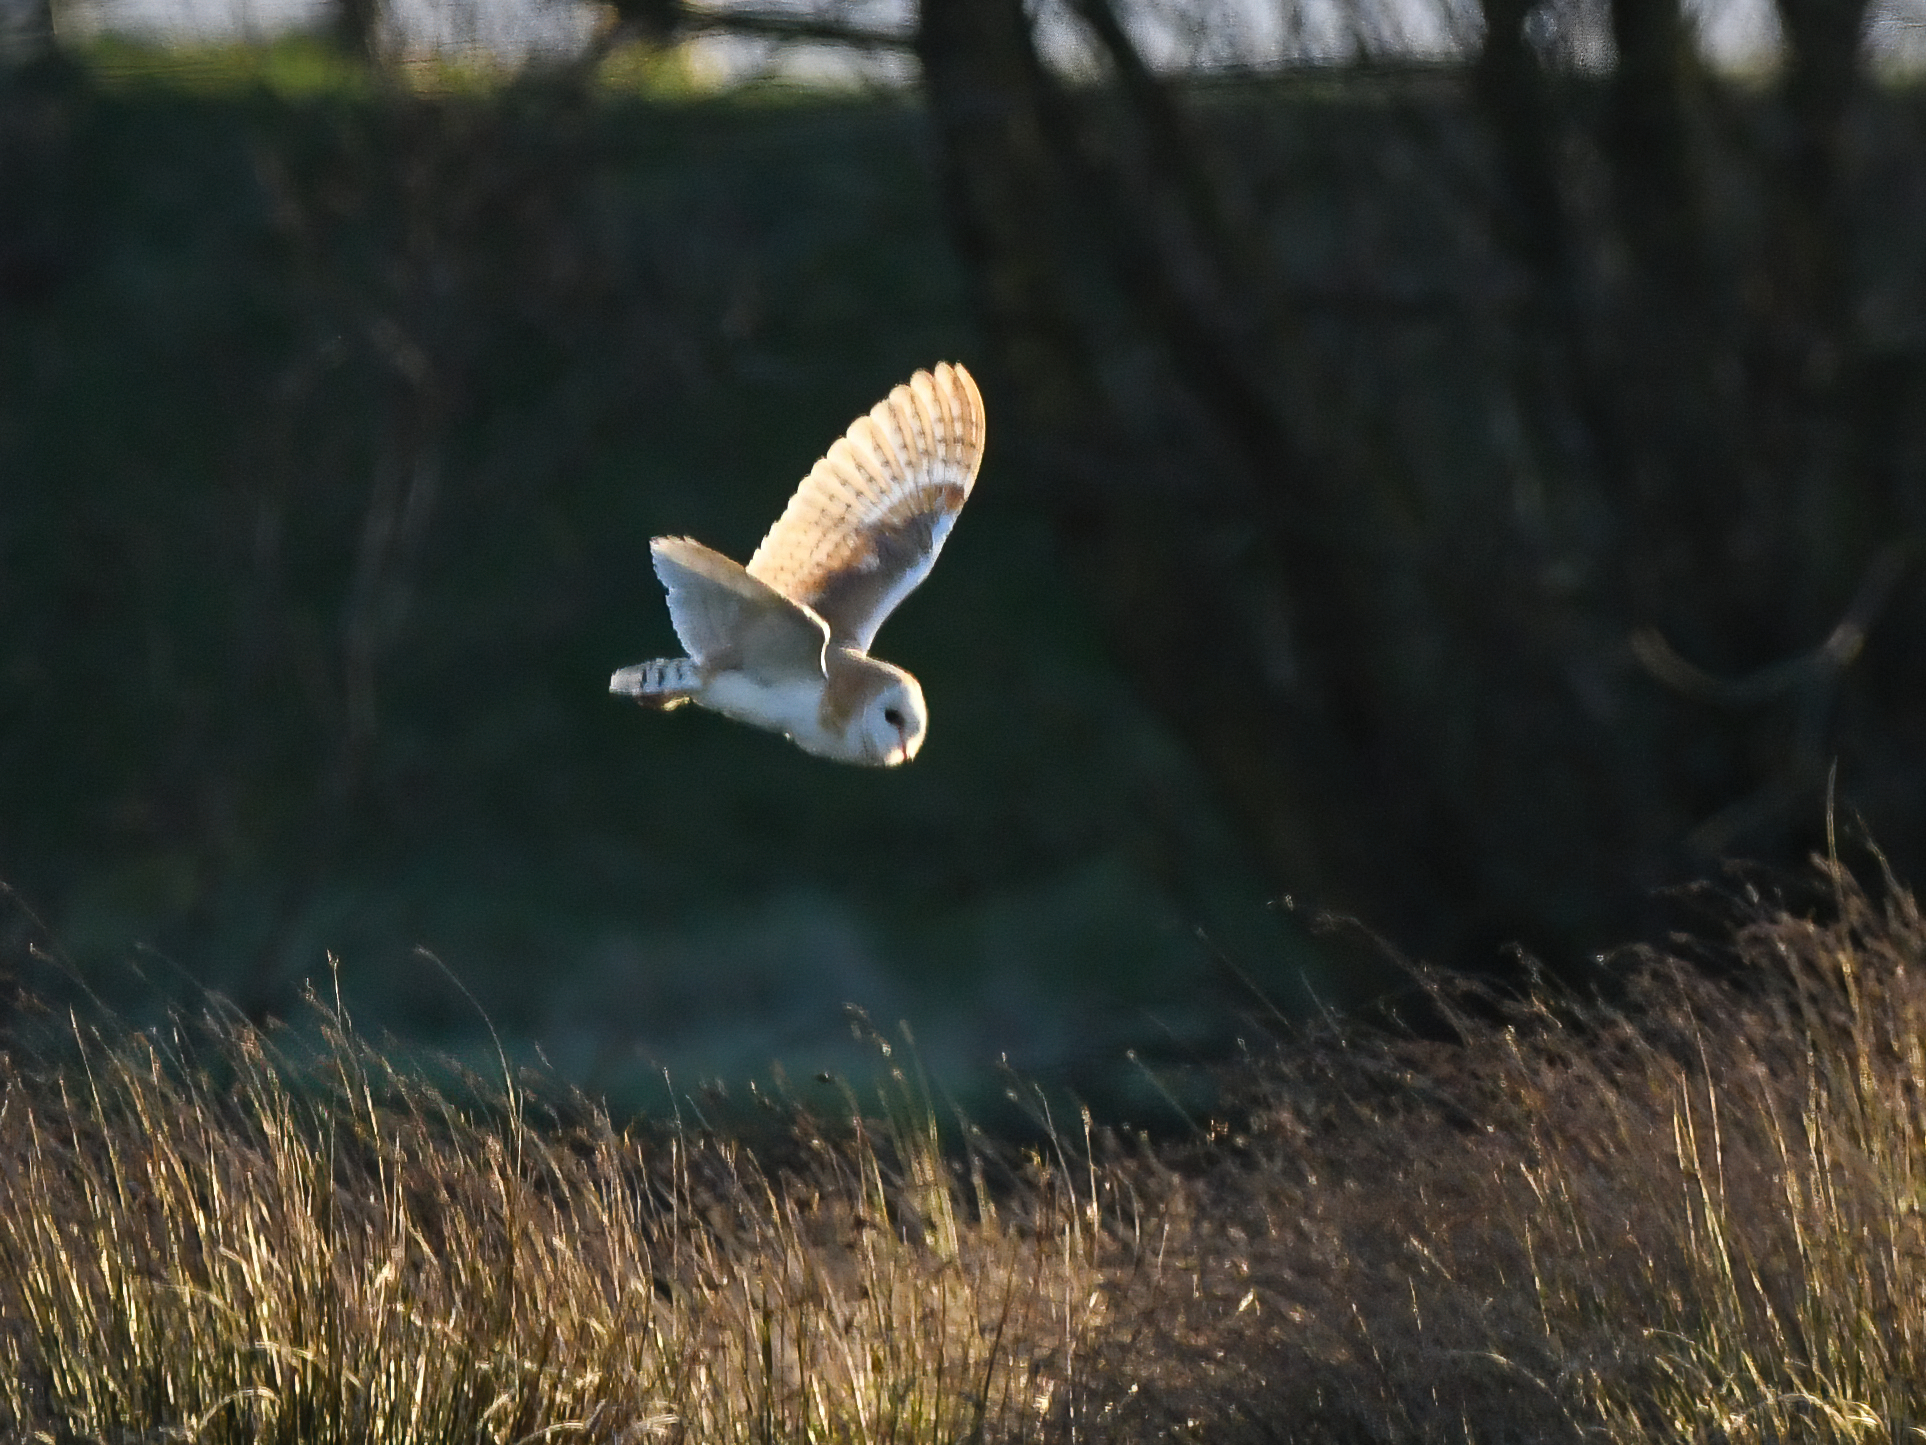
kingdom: Animalia
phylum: Chordata
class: Aves
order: Strigiformes
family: Tytonidae
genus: Tyto
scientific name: Tyto alba
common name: Barn owl
